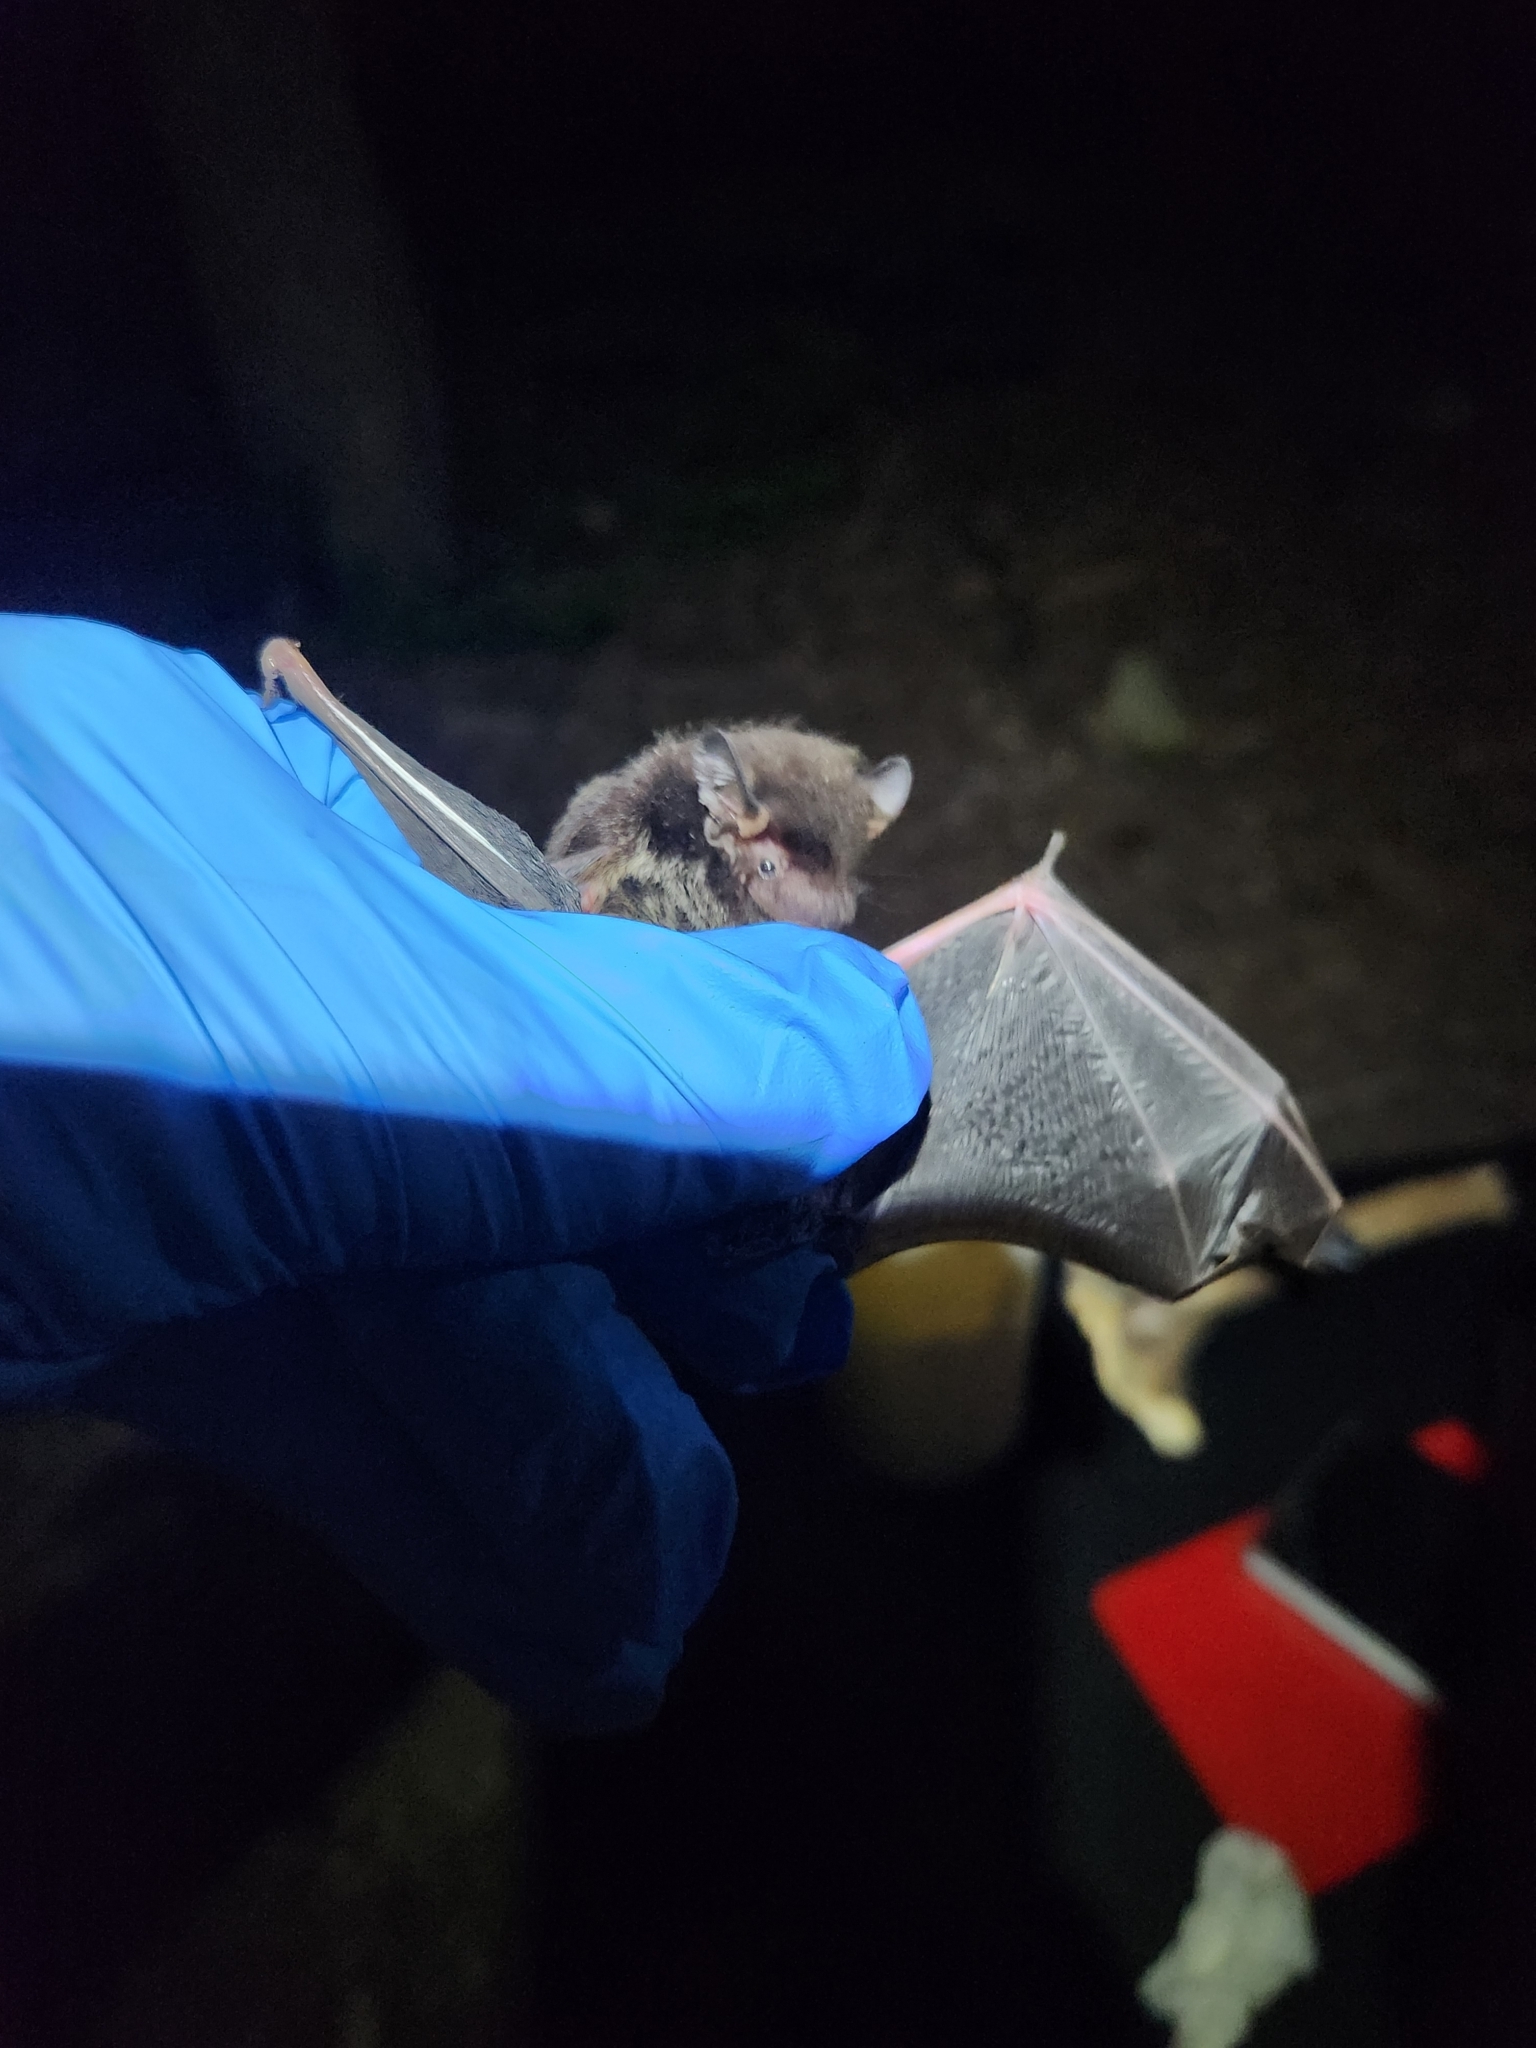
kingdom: Animalia
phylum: Chordata
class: Mammalia
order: Chiroptera
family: Vespertilionidae
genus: Lasionycteris
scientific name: Lasionycteris noctivagans
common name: Silver-haired bat
